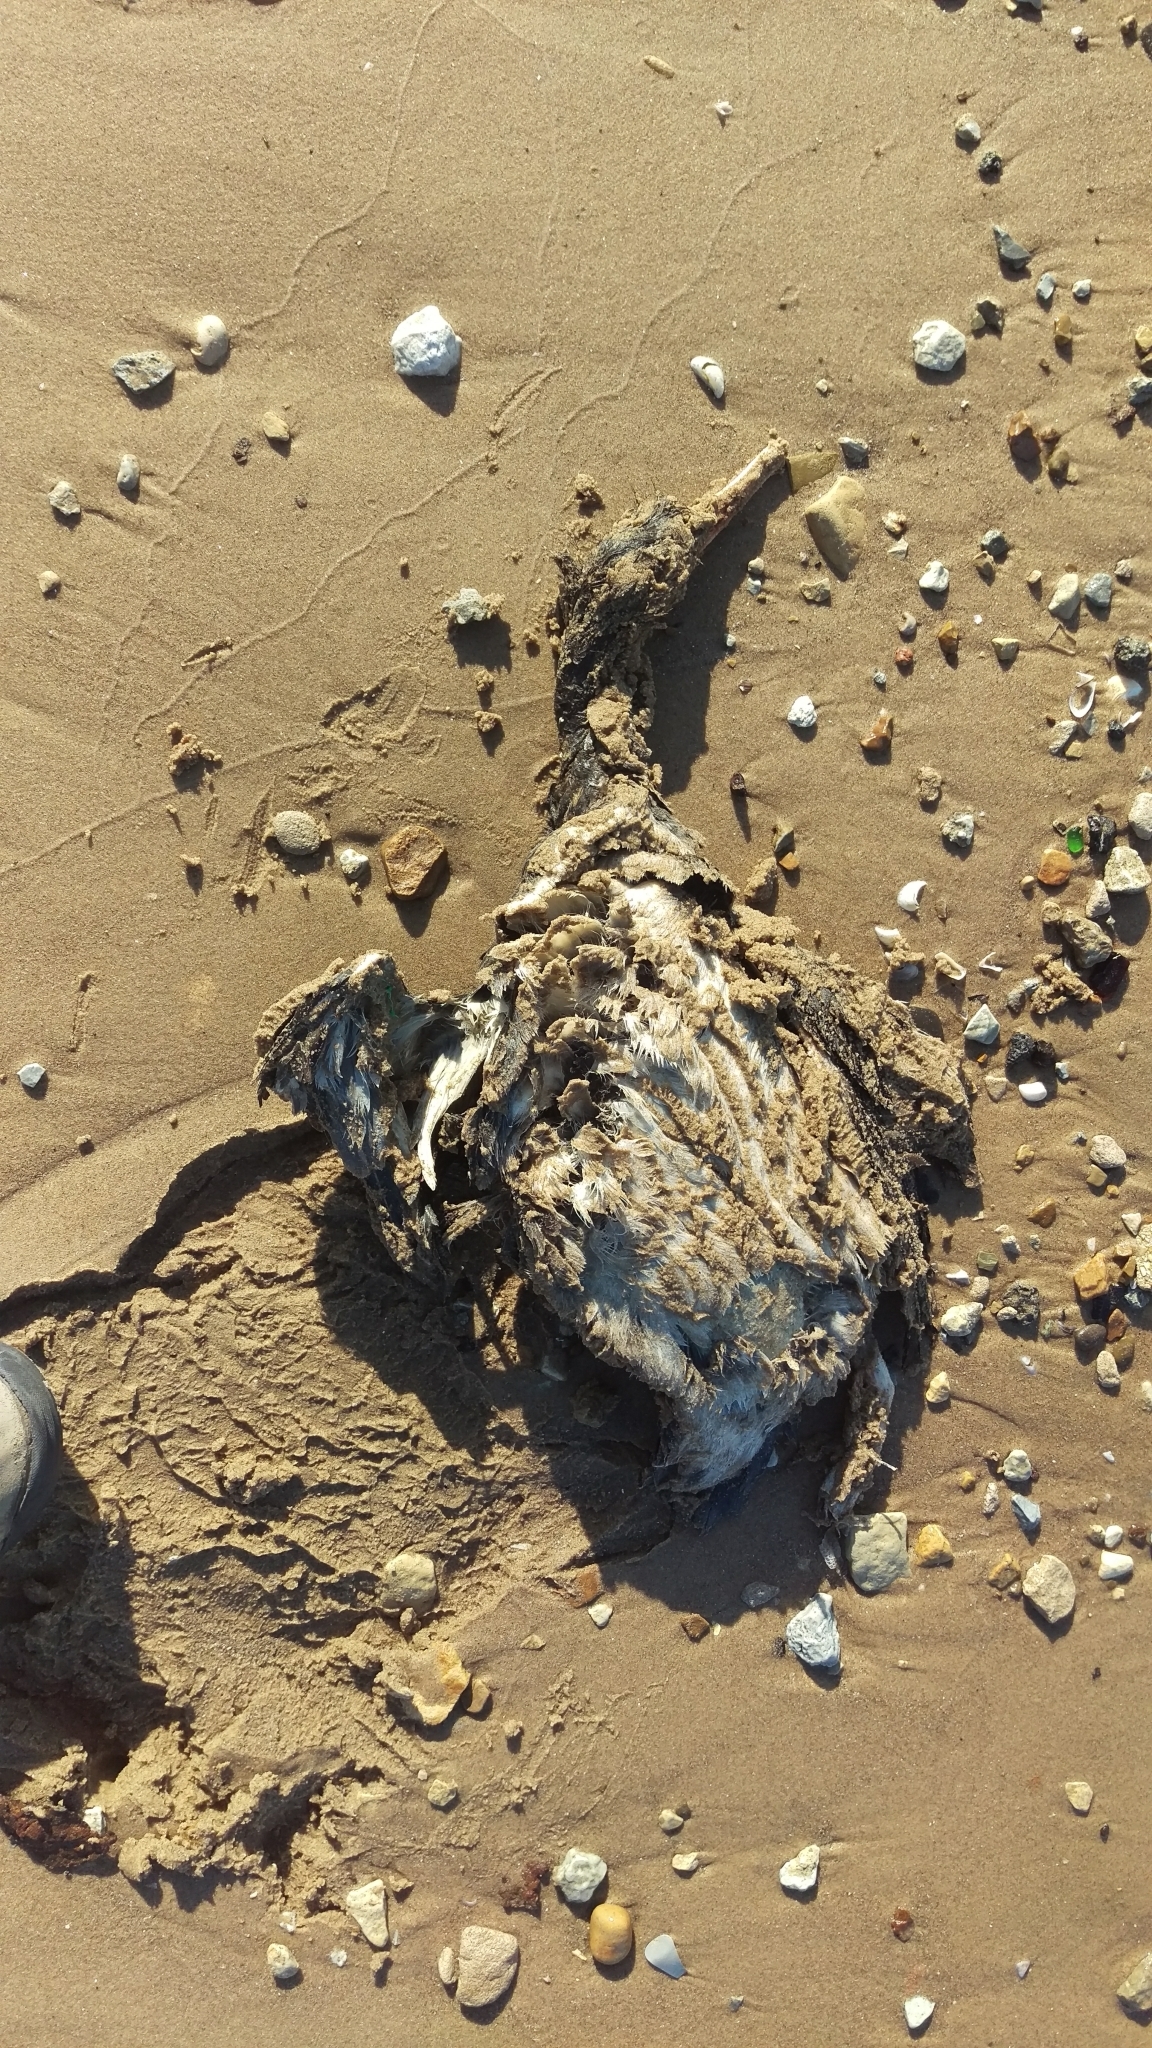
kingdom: Animalia
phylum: Chordata
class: Aves
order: Anseriformes
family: Anatidae
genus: Mergus
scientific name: Mergus serrator
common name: Red-breasted merganser
